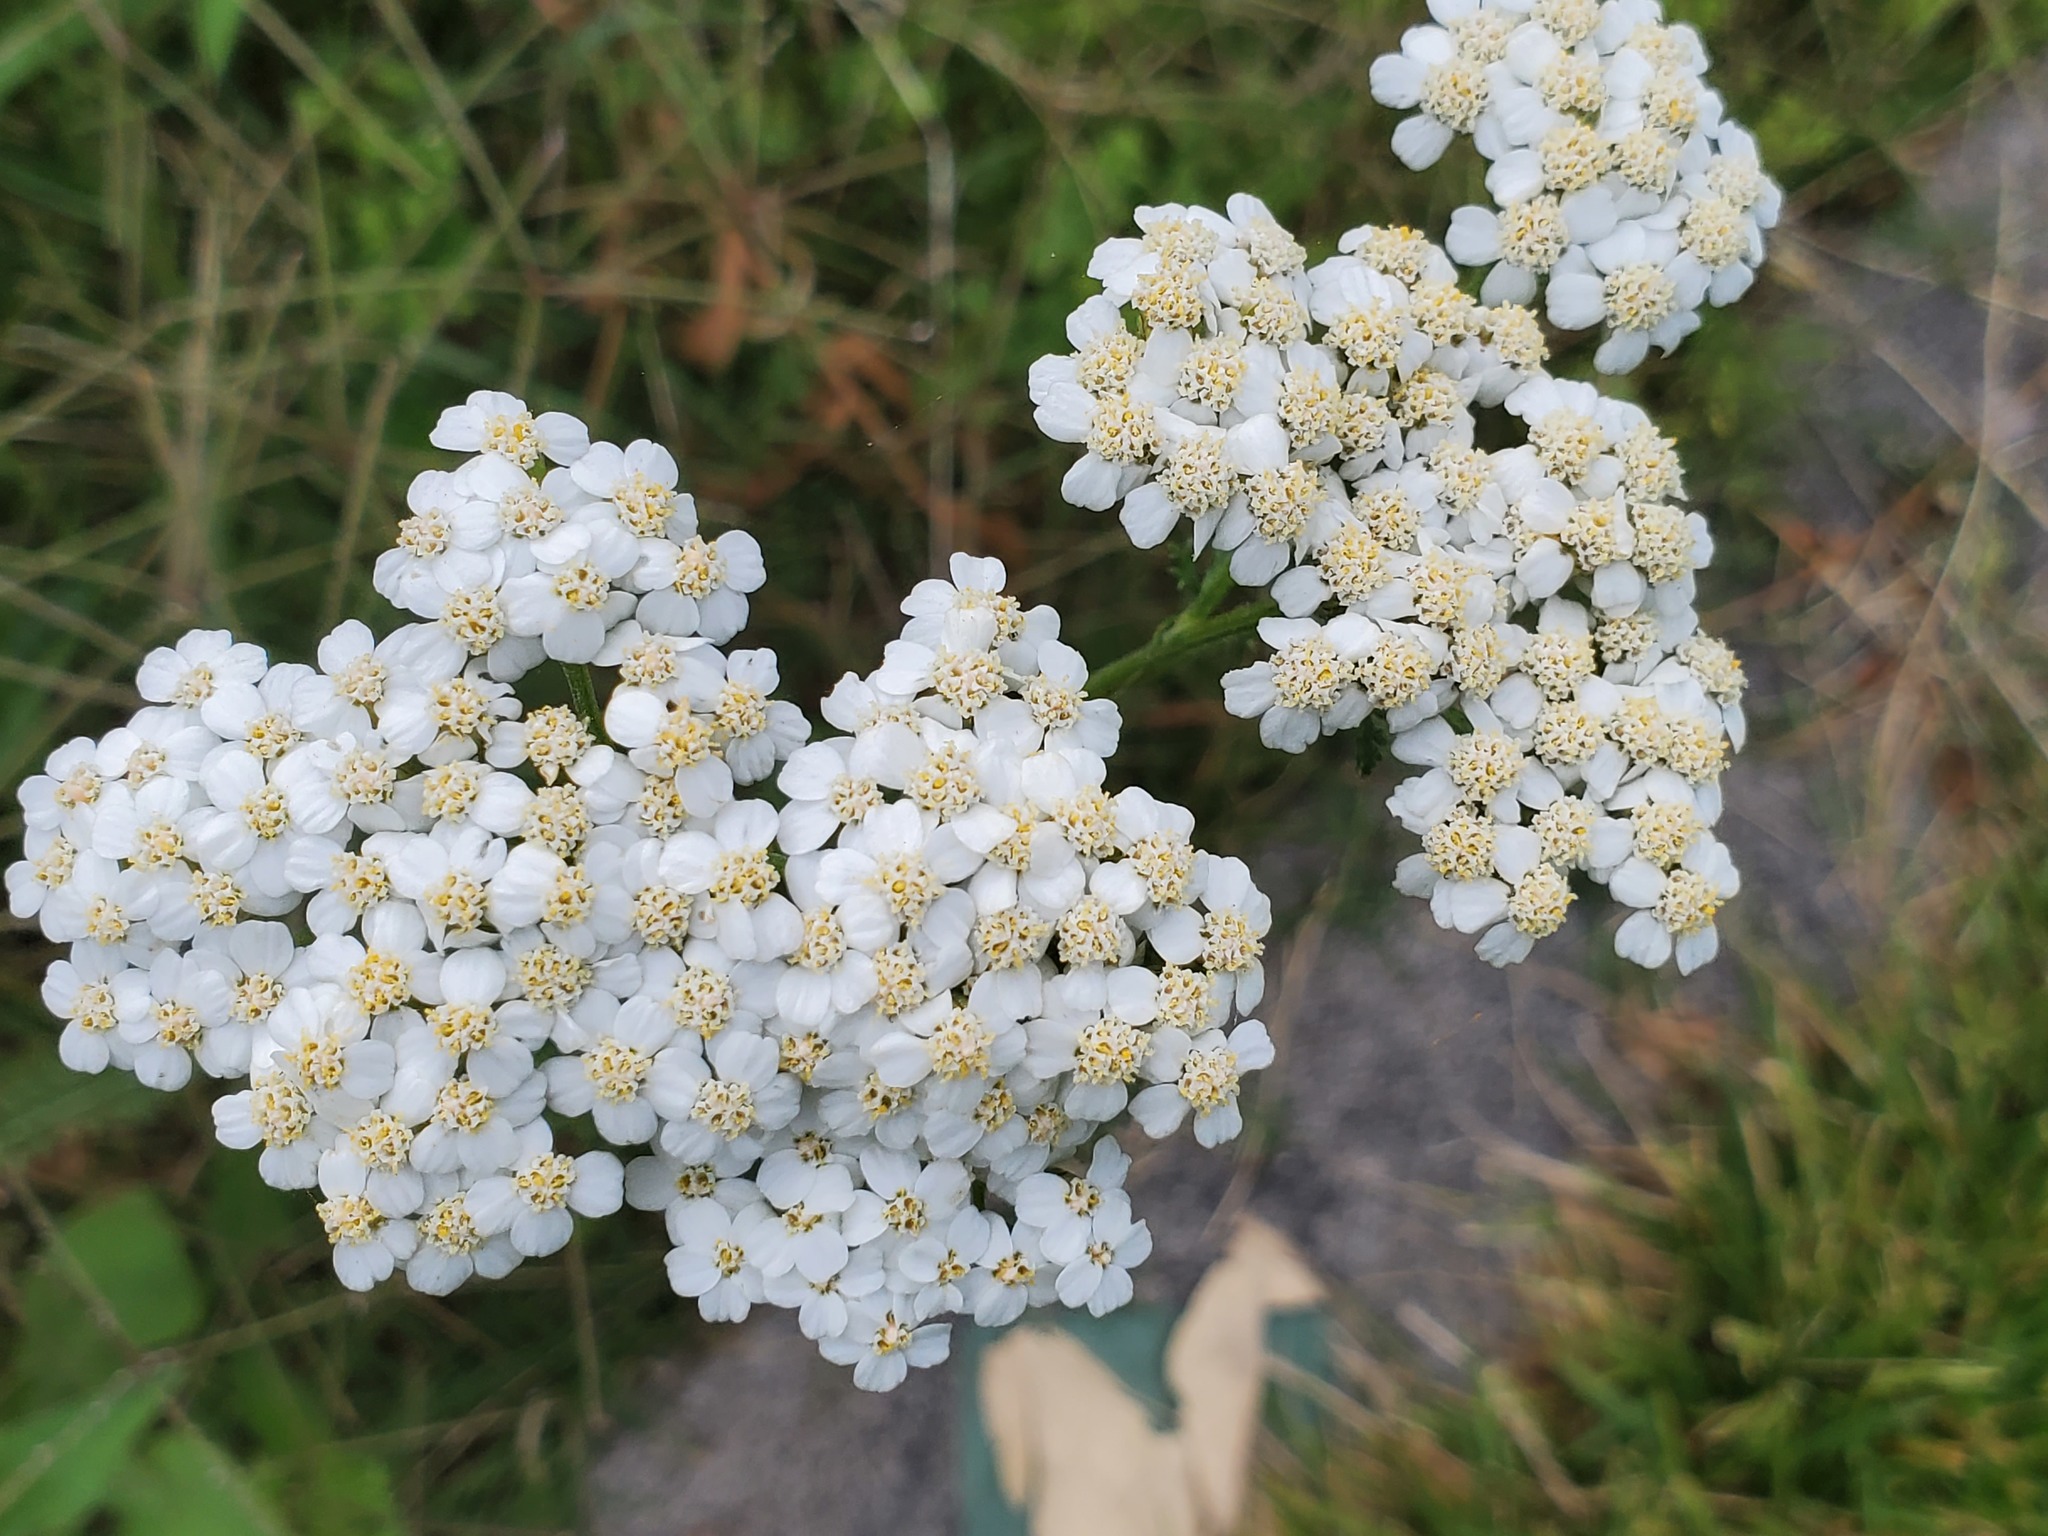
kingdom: Plantae
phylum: Tracheophyta
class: Magnoliopsida
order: Asterales
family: Asteraceae
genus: Achillea
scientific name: Achillea millefolium
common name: Yarrow
